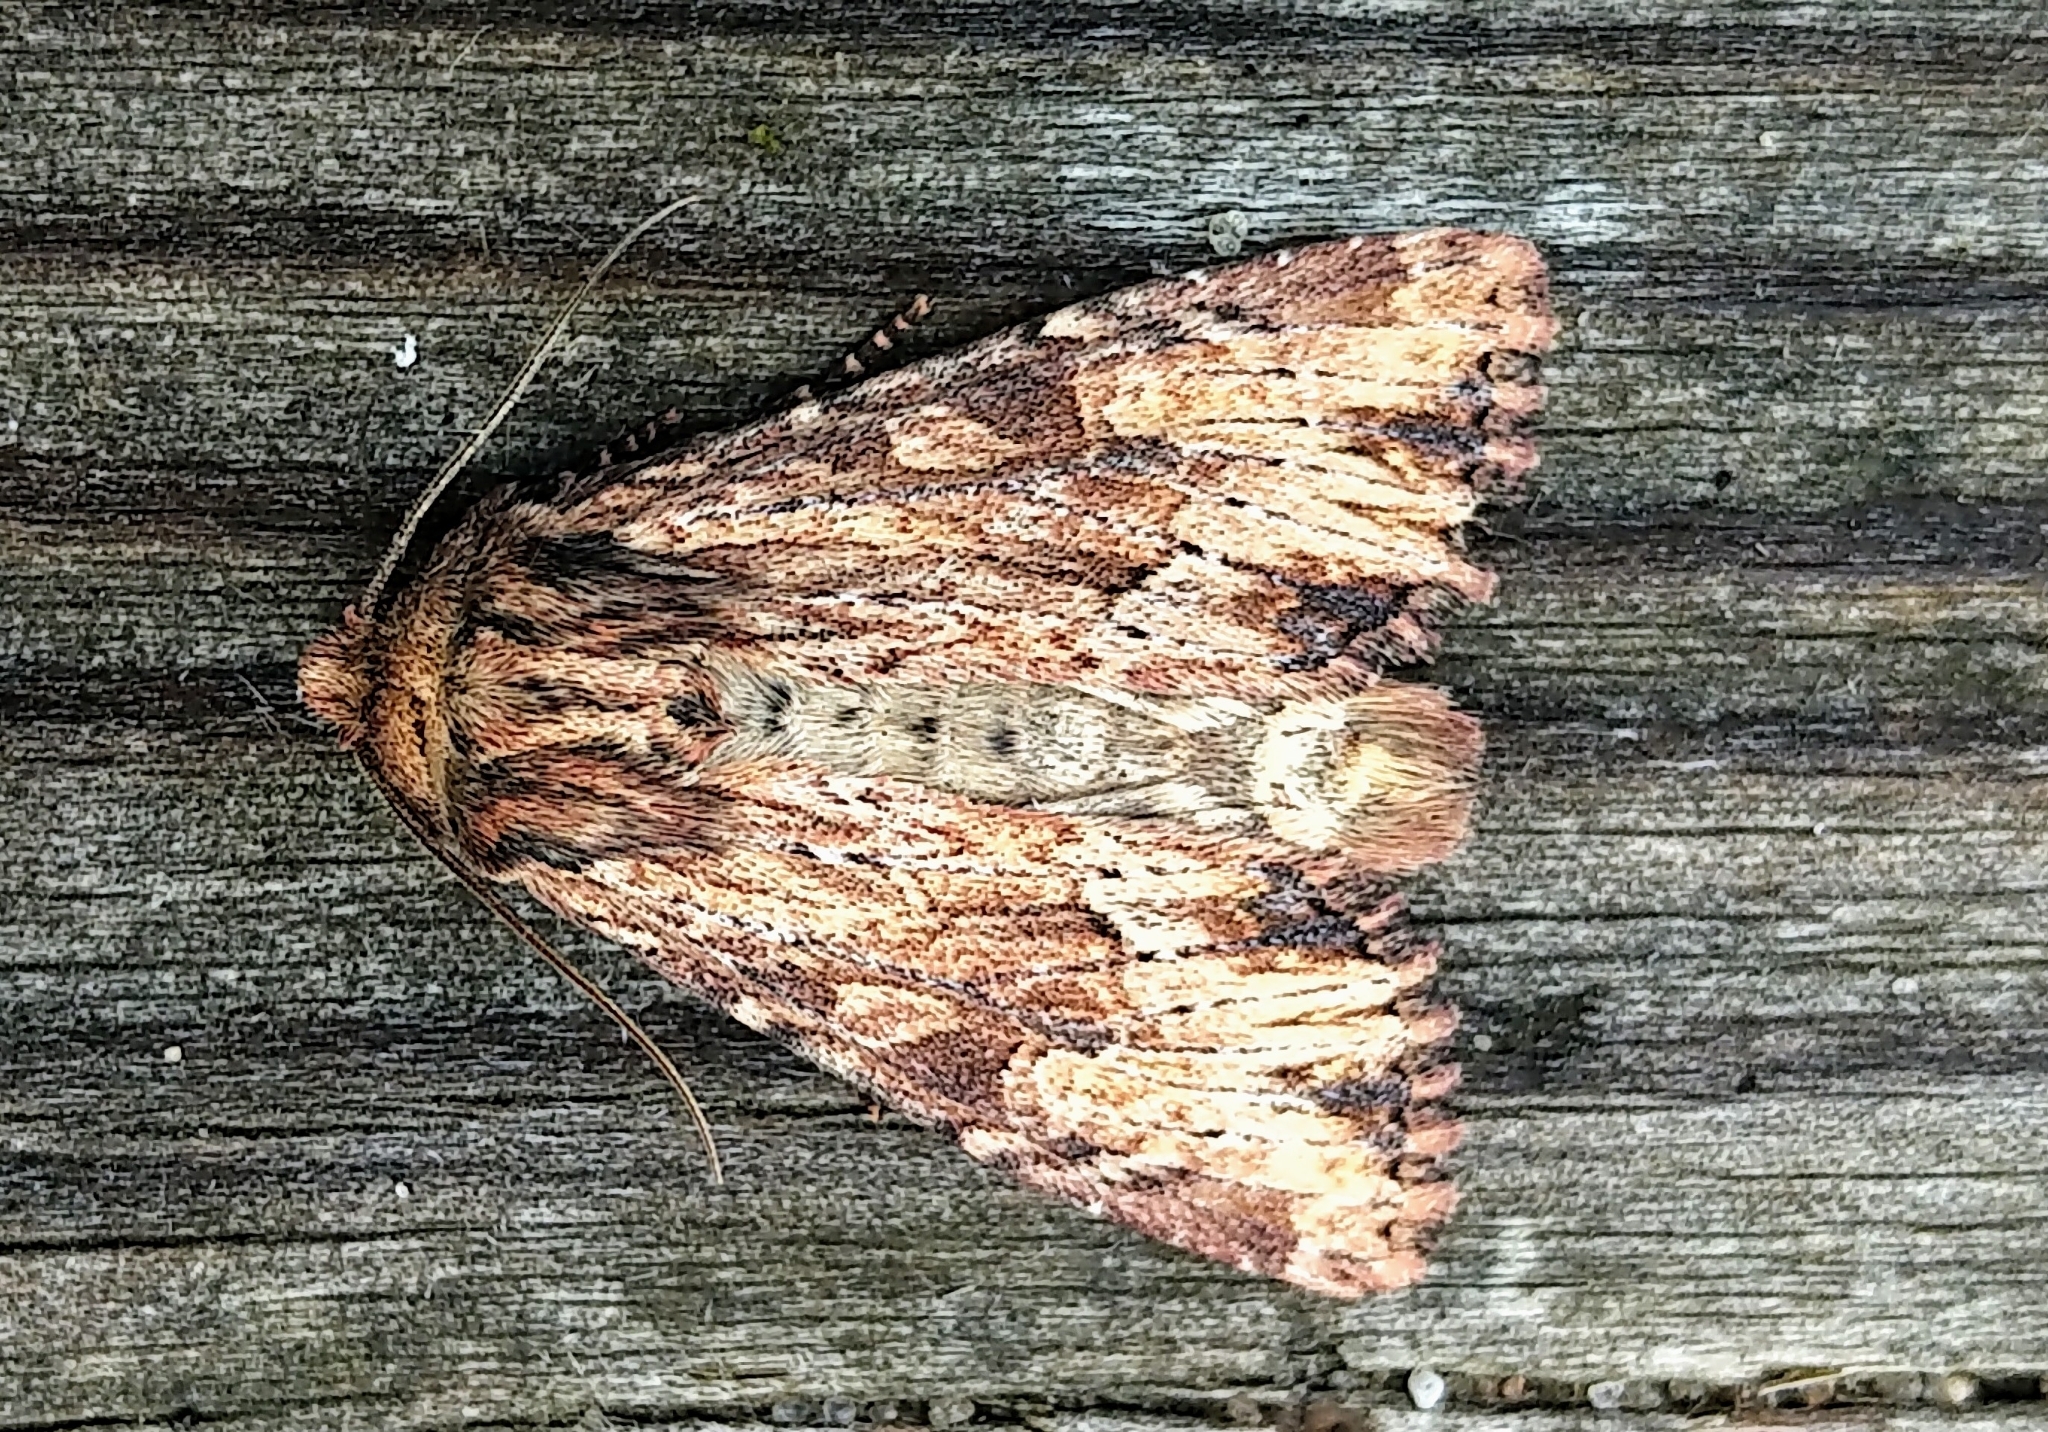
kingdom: Animalia
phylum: Arthropoda
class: Insecta
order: Lepidoptera
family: Noctuidae
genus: Apamea
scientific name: Apamea lignicolora
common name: Wood-colored apamea moth
